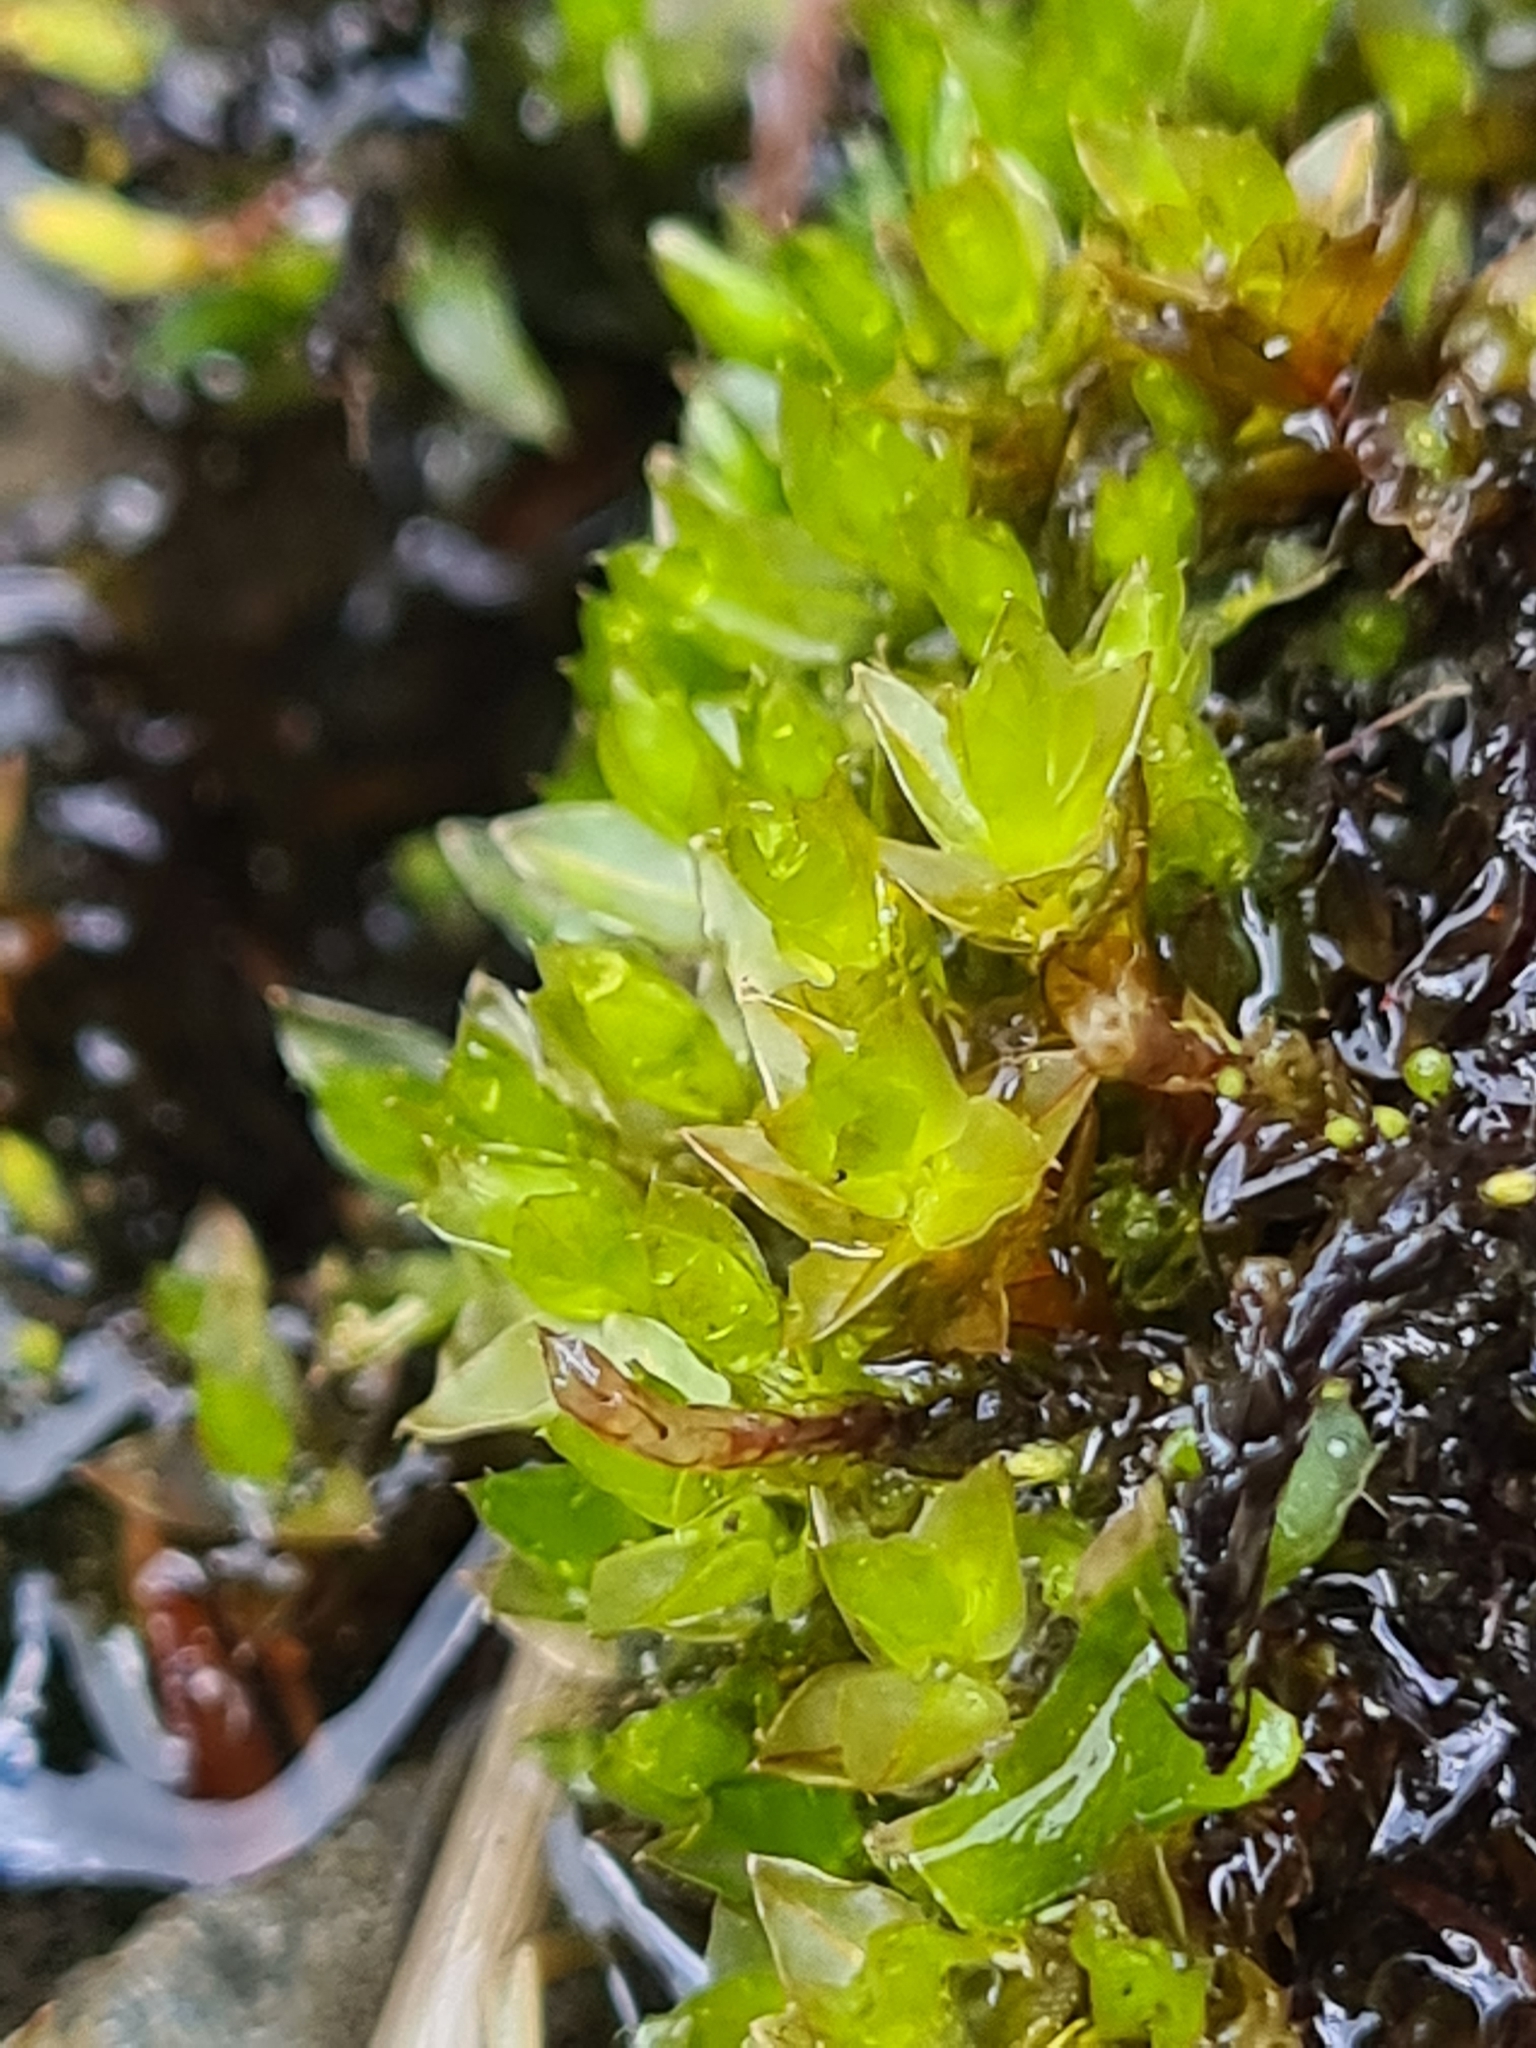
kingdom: Plantae
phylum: Bryophyta
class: Bryopsida
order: Bryales
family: Bryaceae
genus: Ptychostomum
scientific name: Ptychostomum pseudotriquetrum
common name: Long-leaved thread moss
